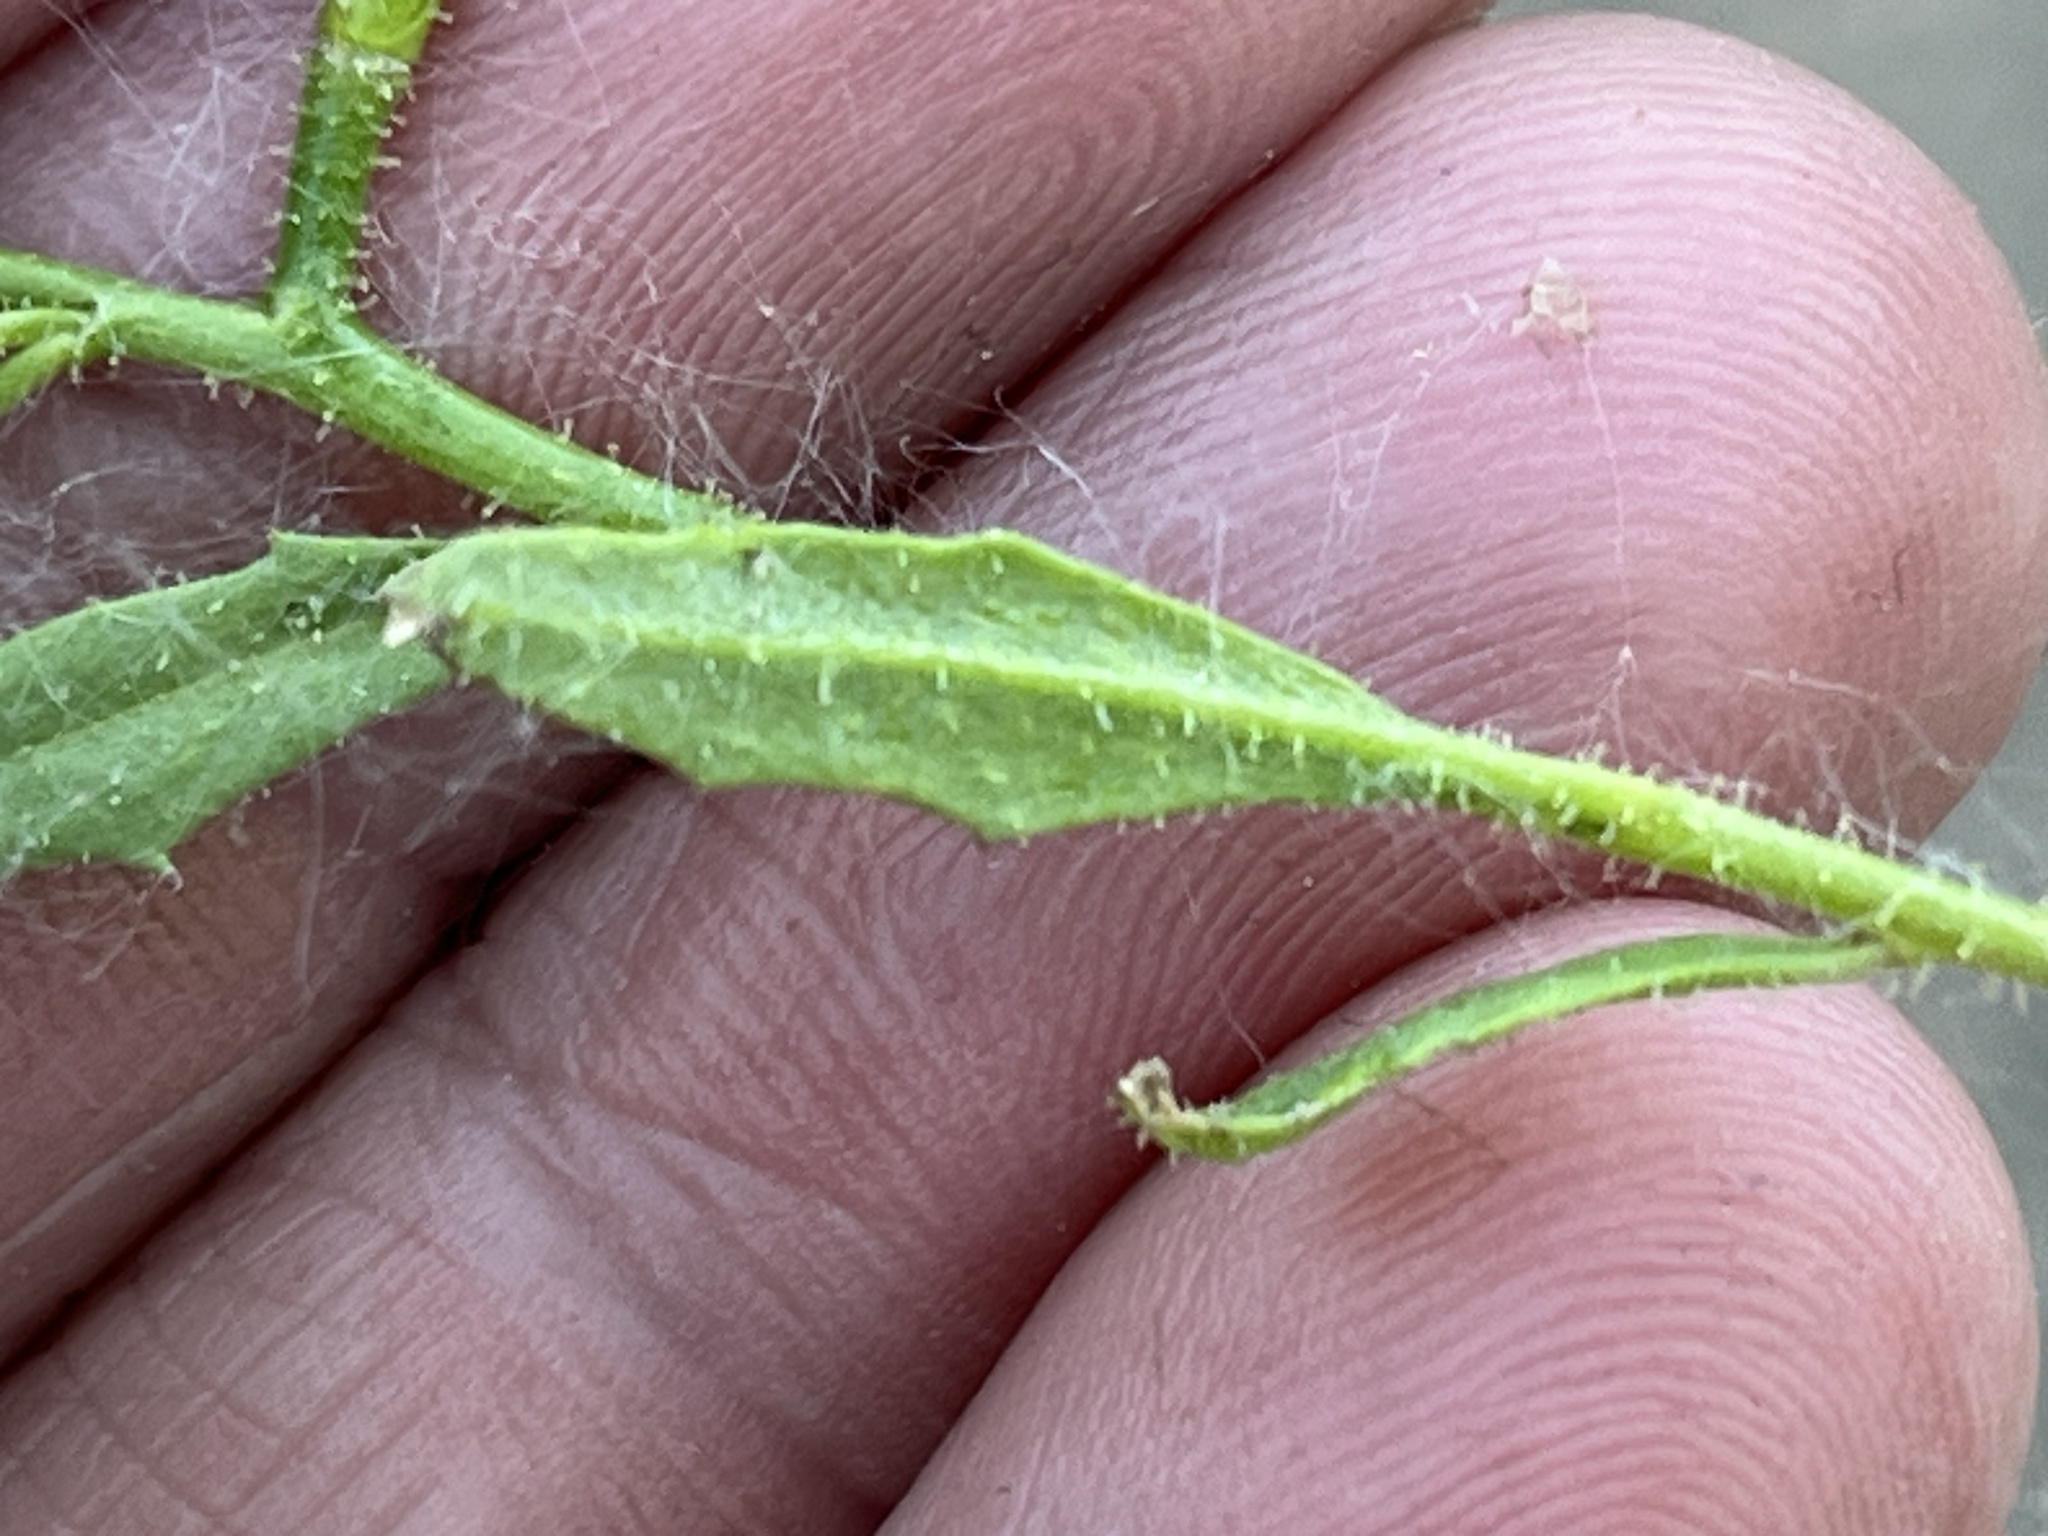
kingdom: Plantae
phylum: Tracheophyta
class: Magnoliopsida
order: Brassicales
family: Brassicaceae
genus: Chorispora
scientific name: Chorispora tenella
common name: Crossflower
